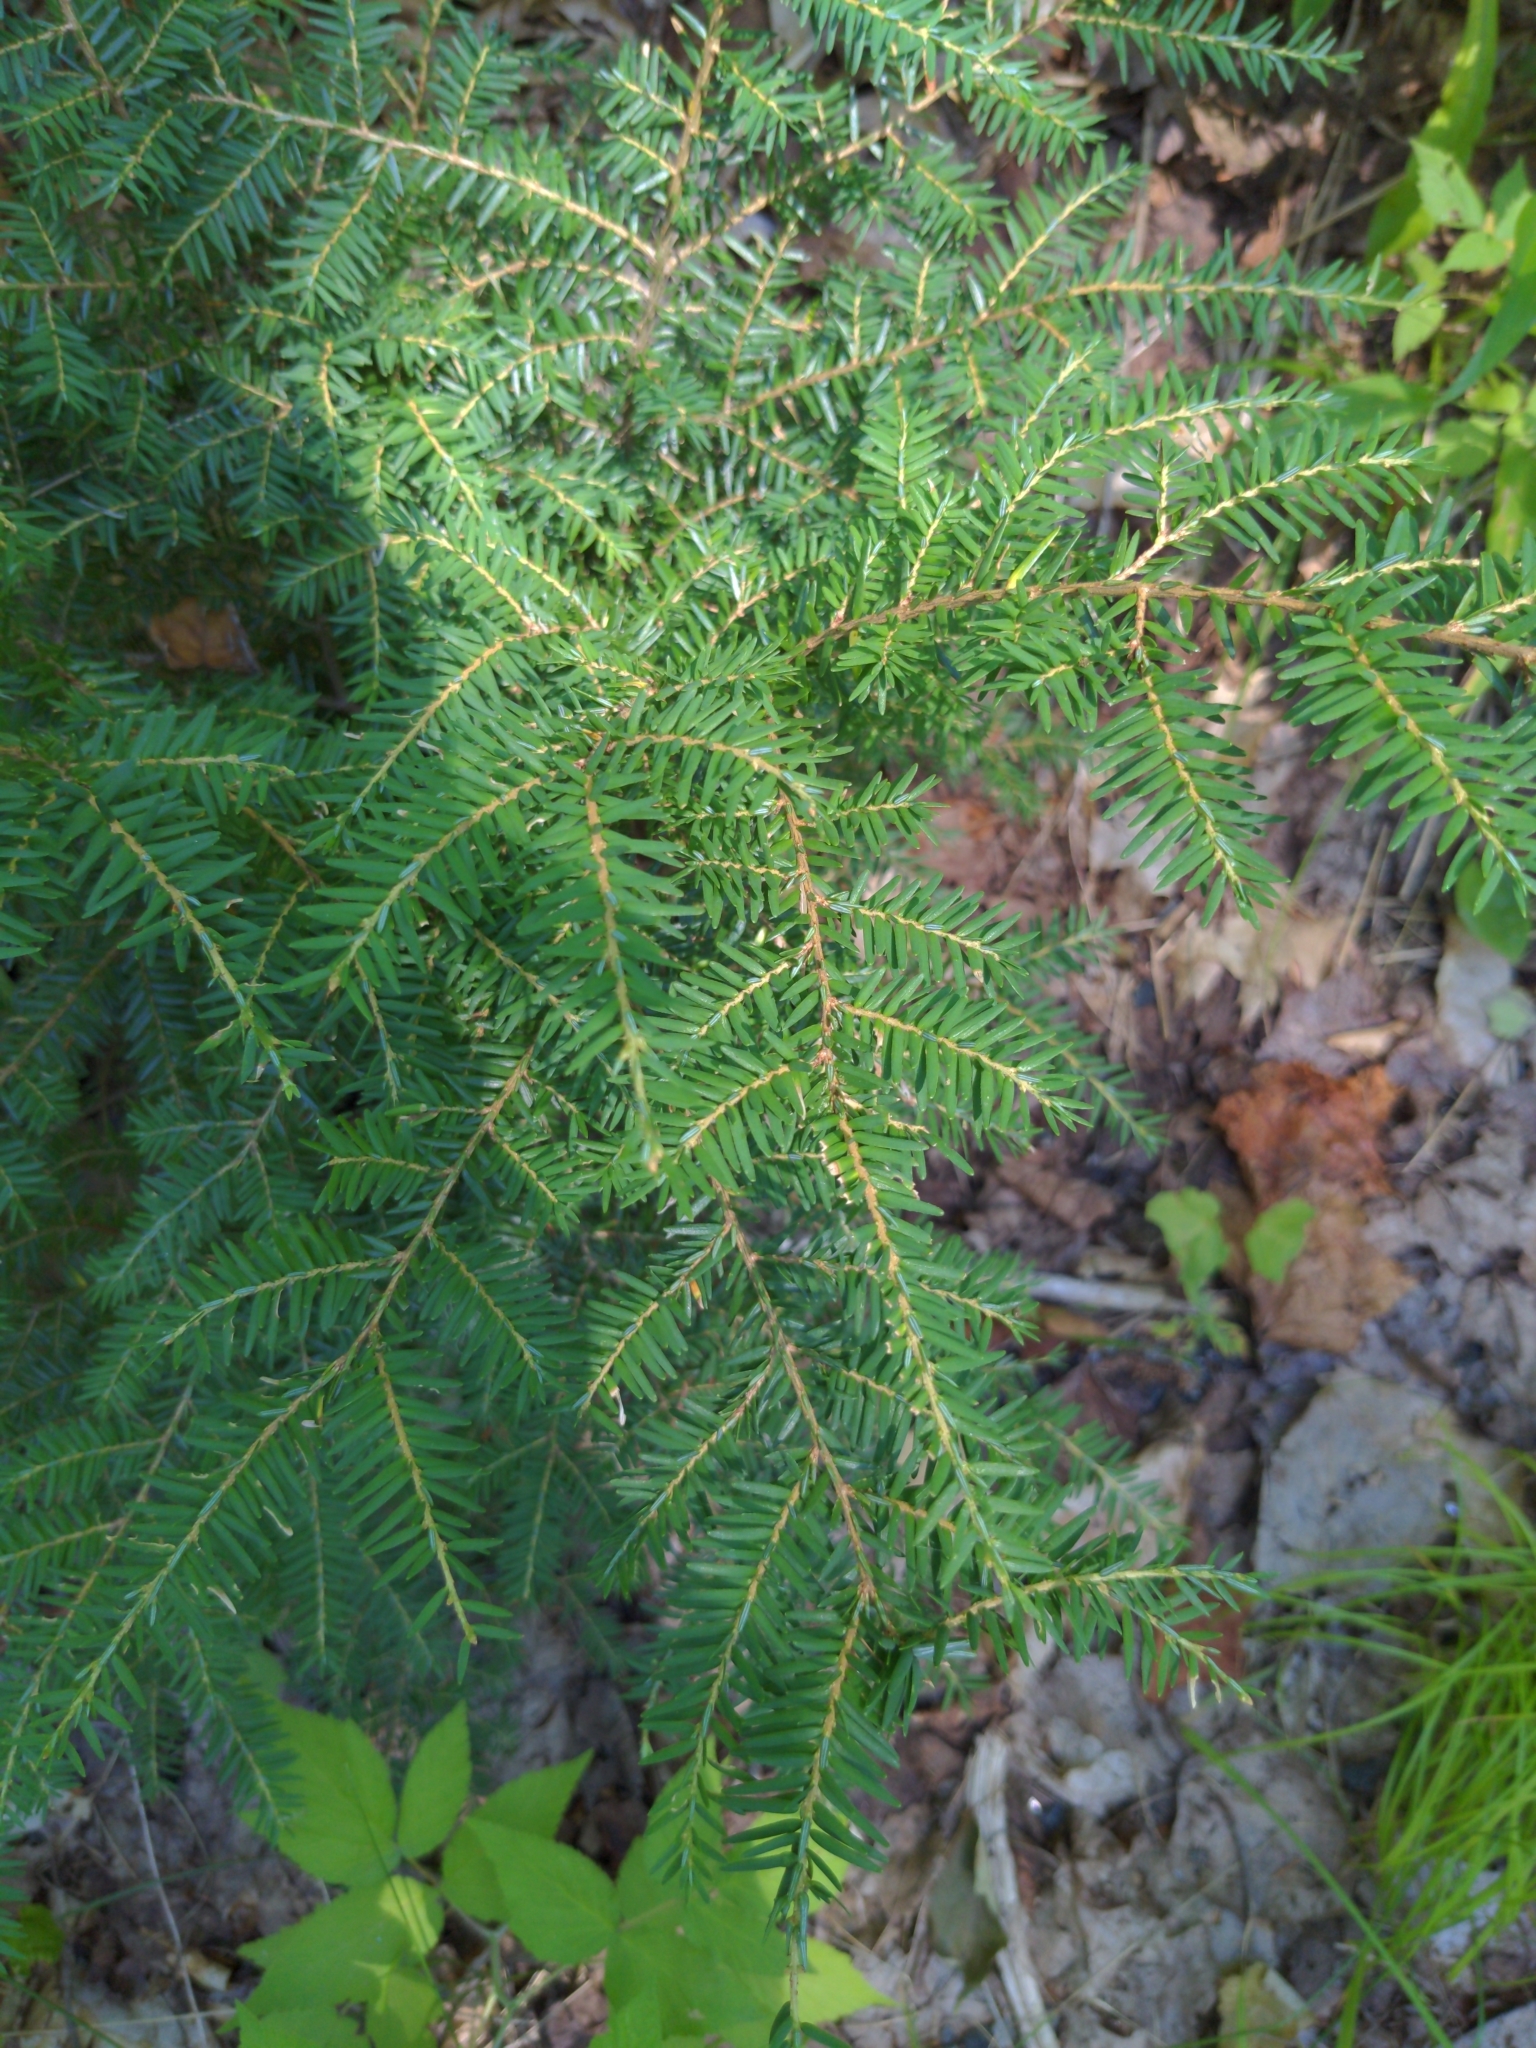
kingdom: Plantae
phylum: Tracheophyta
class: Pinopsida
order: Pinales
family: Pinaceae
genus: Tsuga
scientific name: Tsuga canadensis
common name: Eastern hemlock
